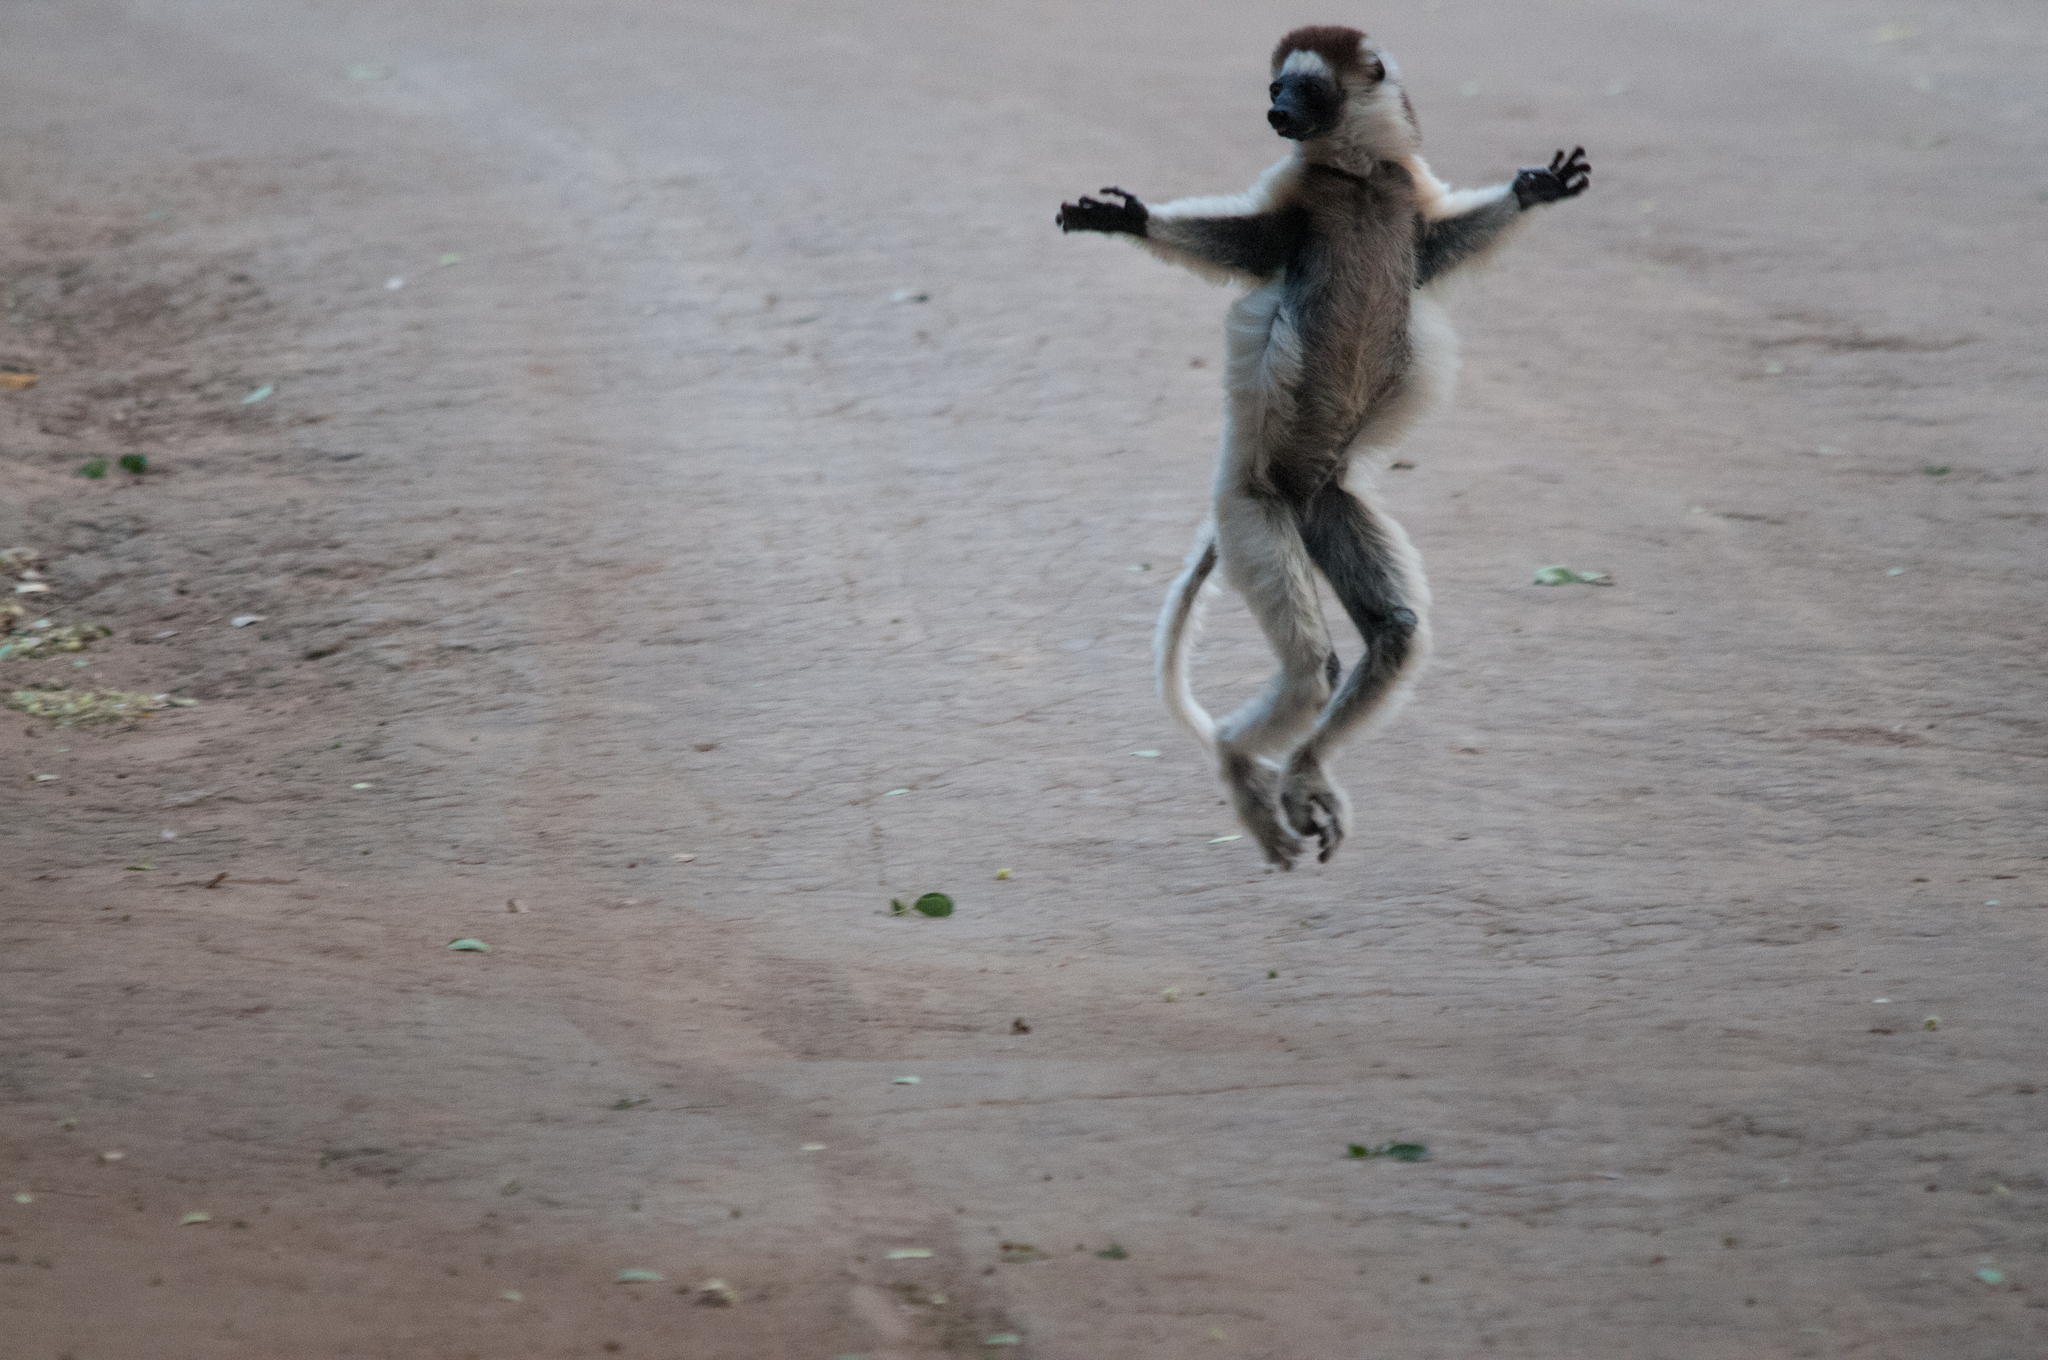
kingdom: Animalia
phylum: Chordata
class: Mammalia
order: Primates
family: Indriidae
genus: Propithecus
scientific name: Propithecus verreauxi
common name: Verreaux's sifaka
